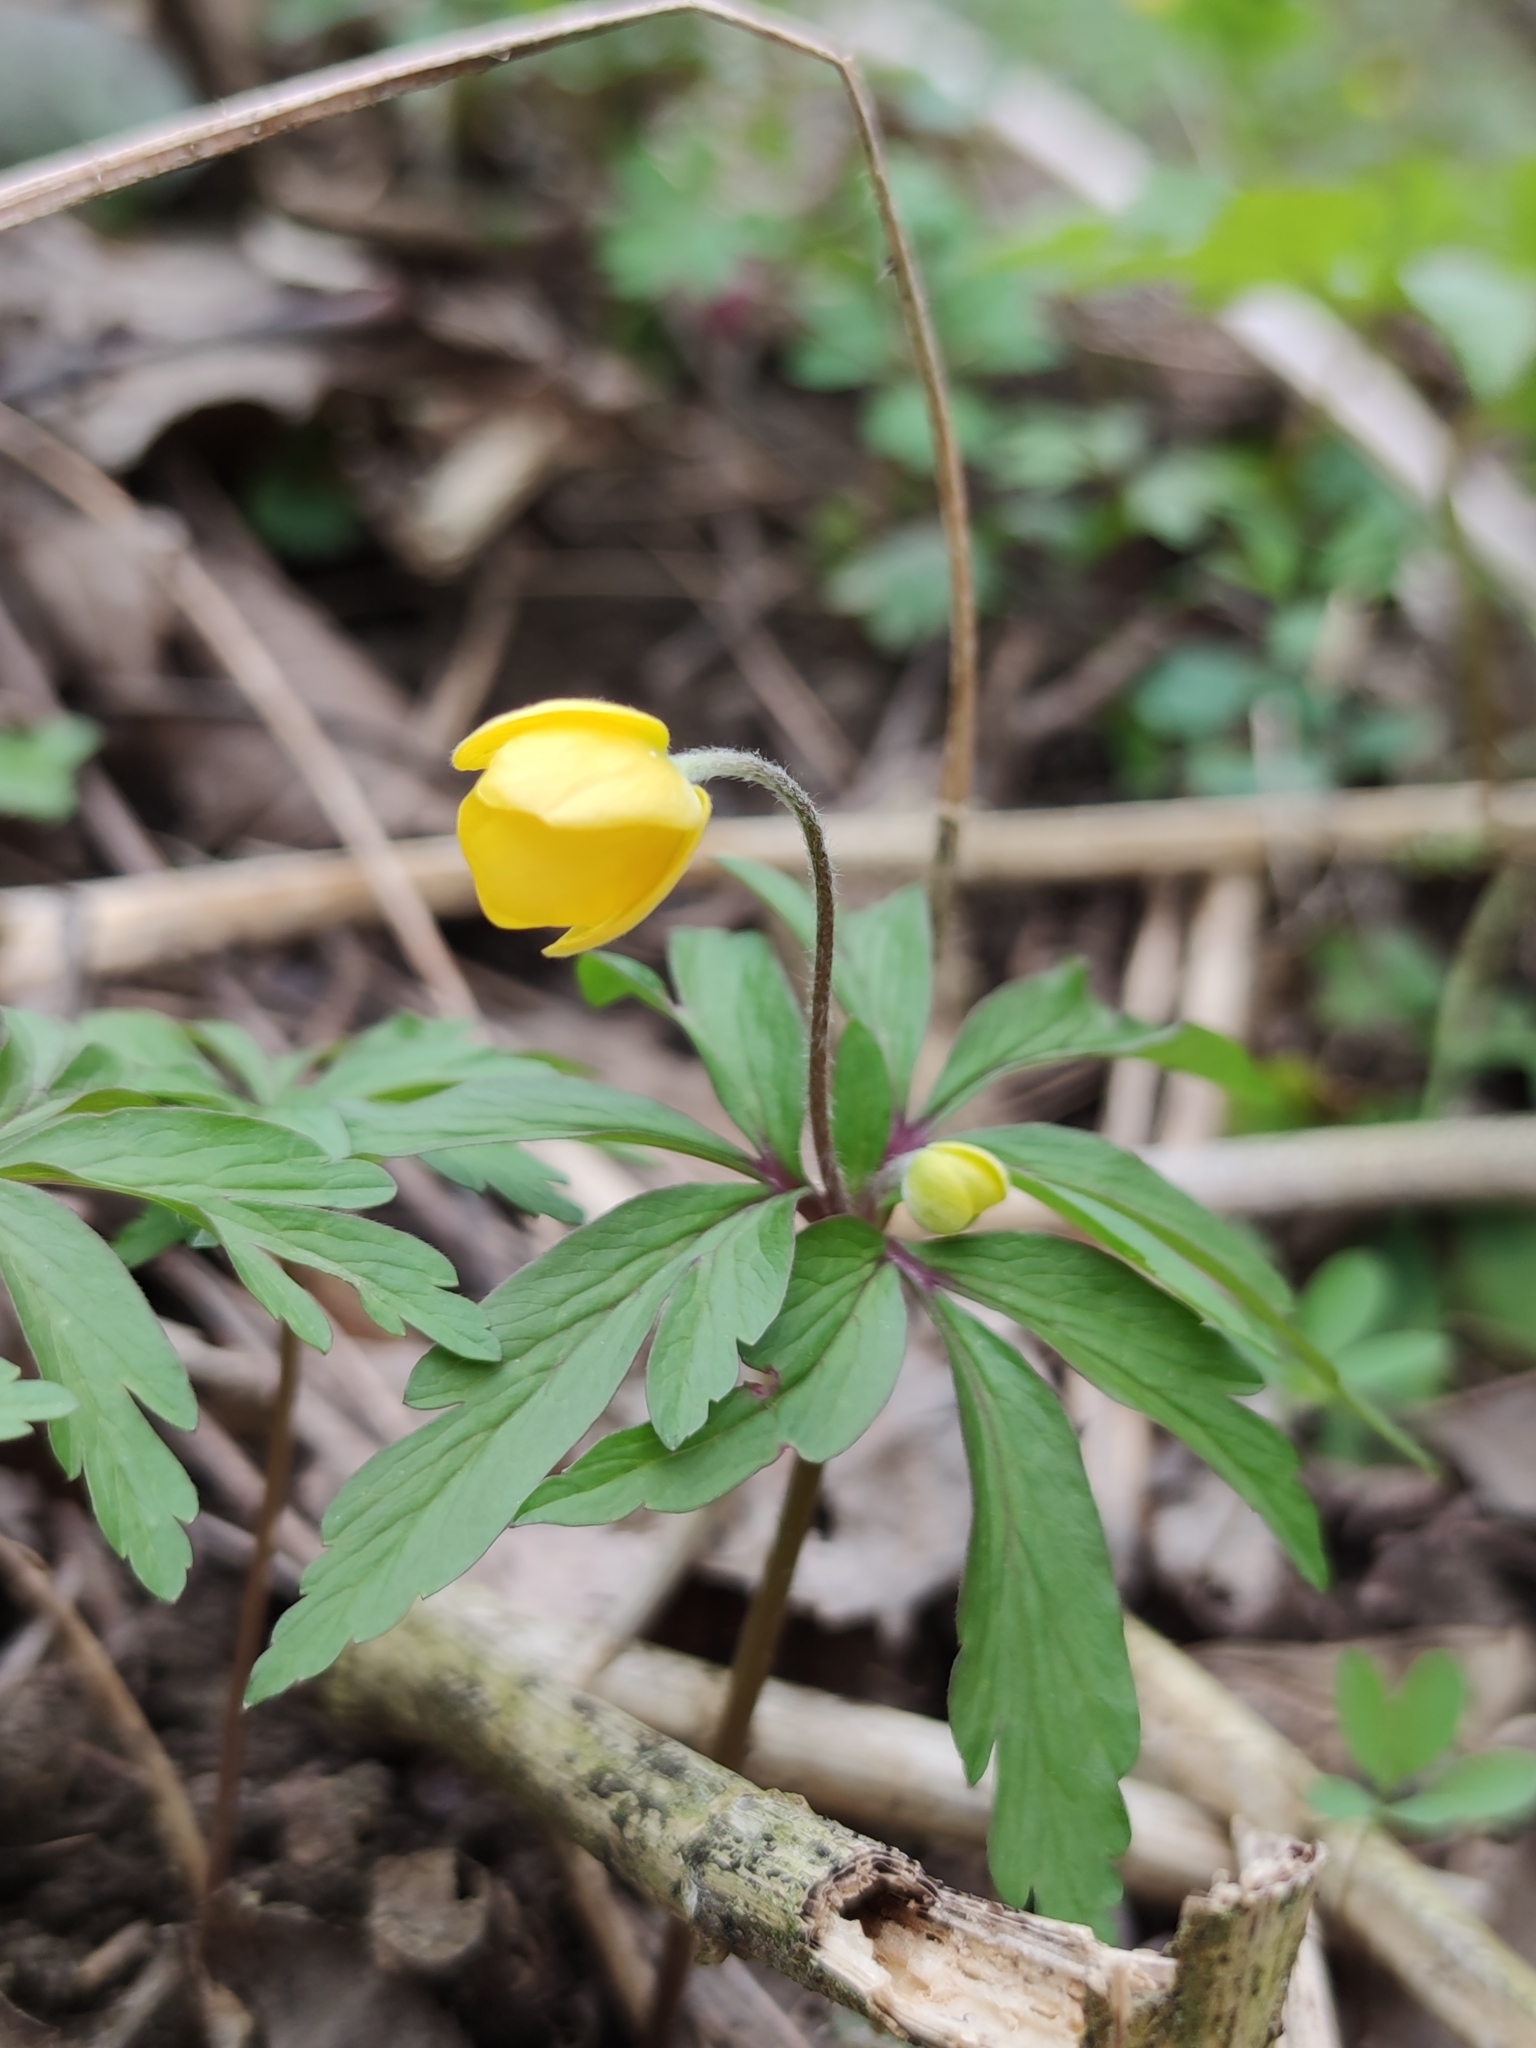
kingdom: Plantae
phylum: Tracheophyta
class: Magnoliopsida
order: Ranunculales
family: Ranunculaceae
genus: Anemone
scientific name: Anemone ranunculoides
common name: Yellow anemone
